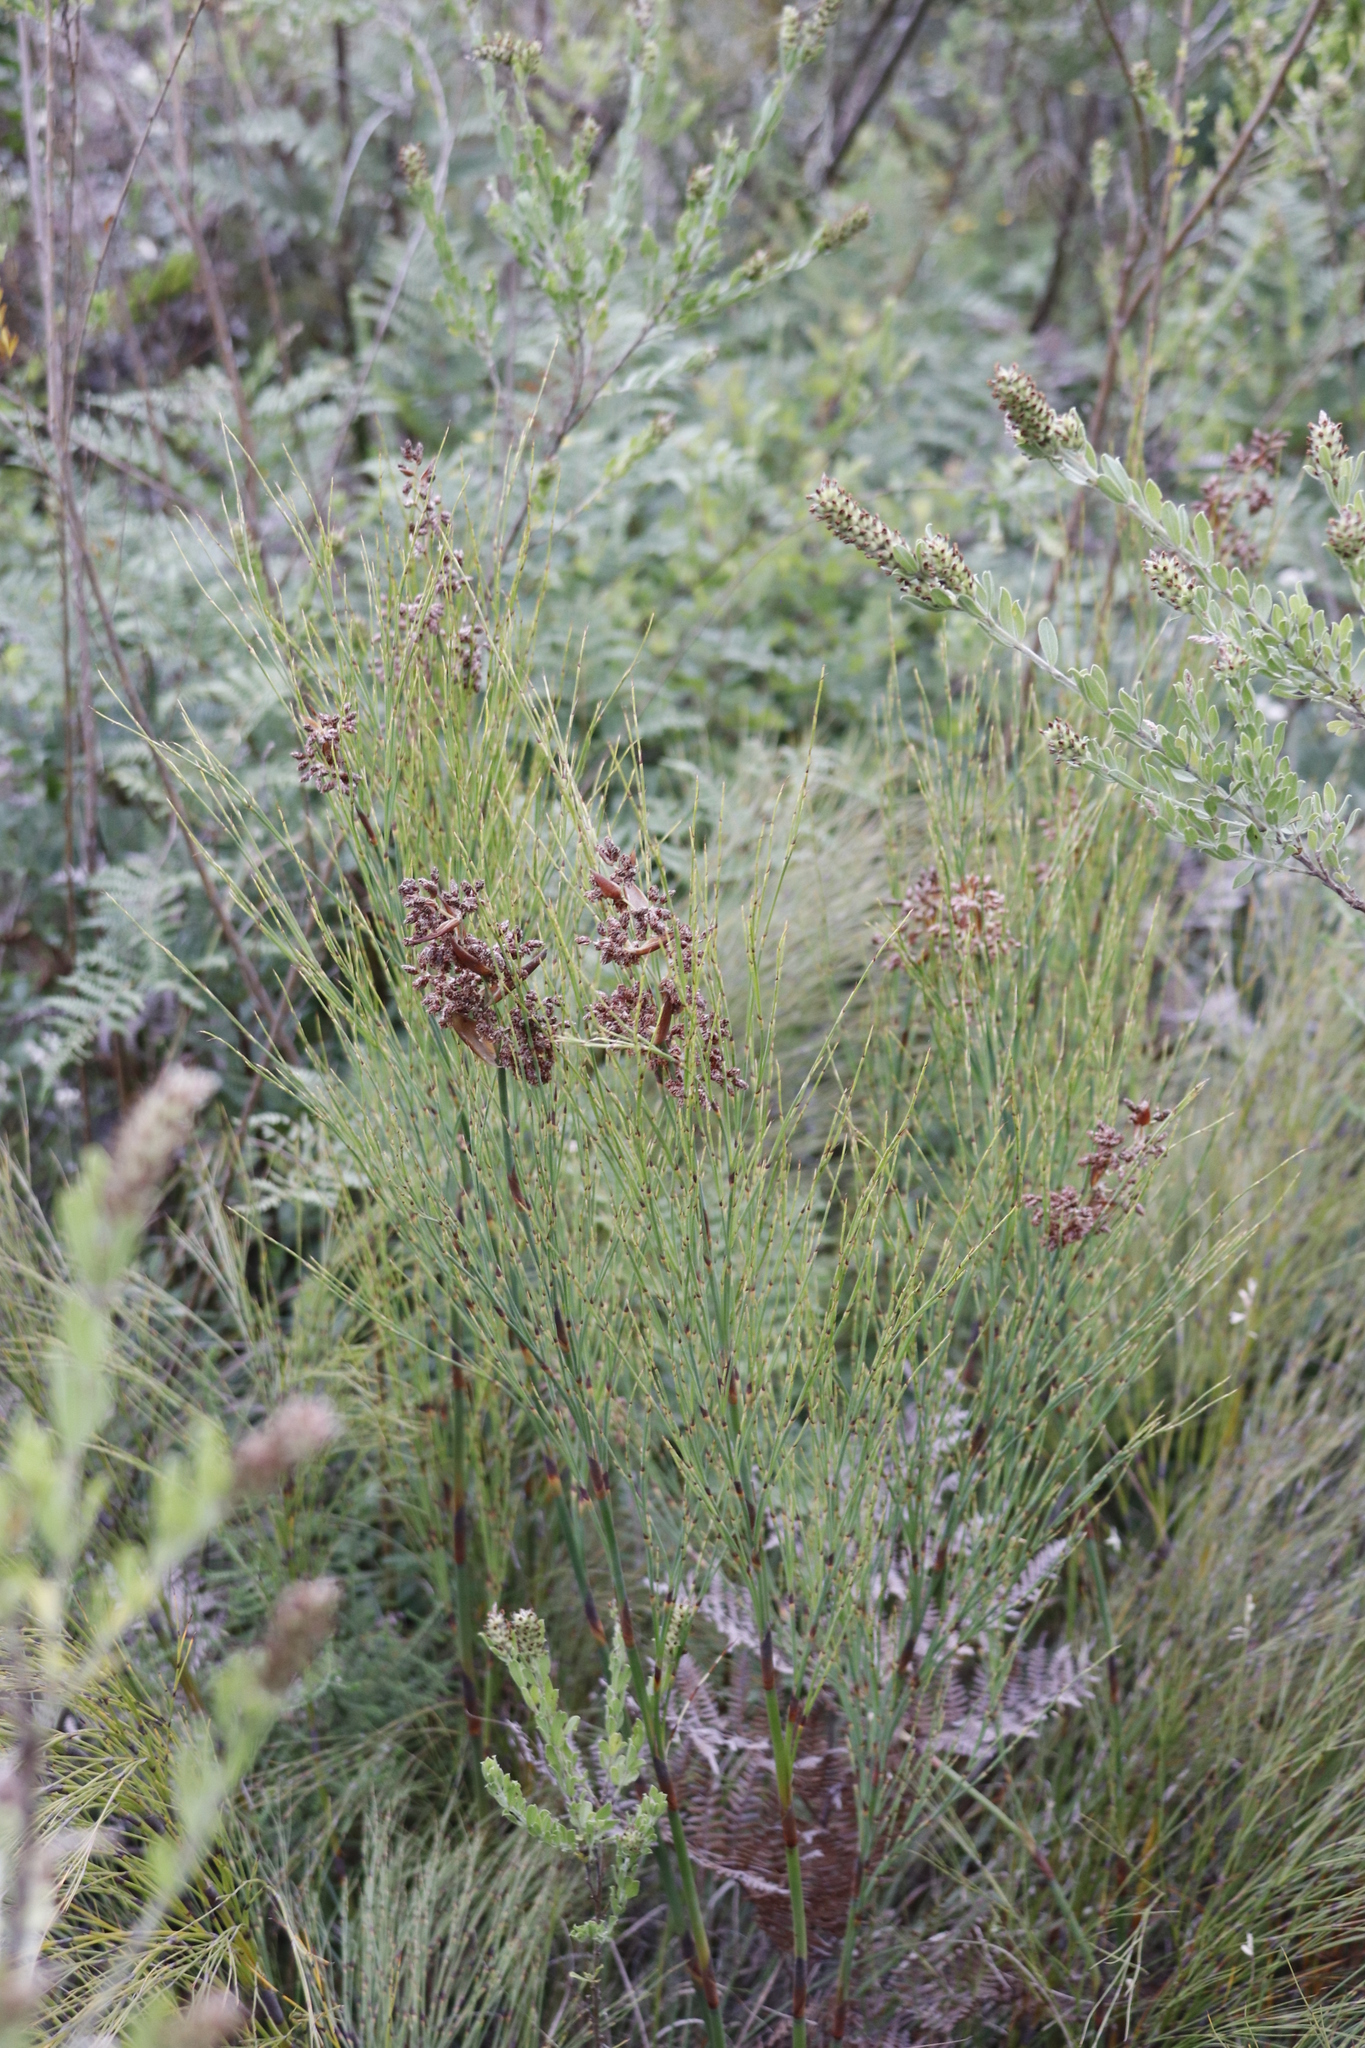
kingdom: Plantae
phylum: Tracheophyta
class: Liliopsida
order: Poales
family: Restionaceae
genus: Cannomois
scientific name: Cannomois virgata
